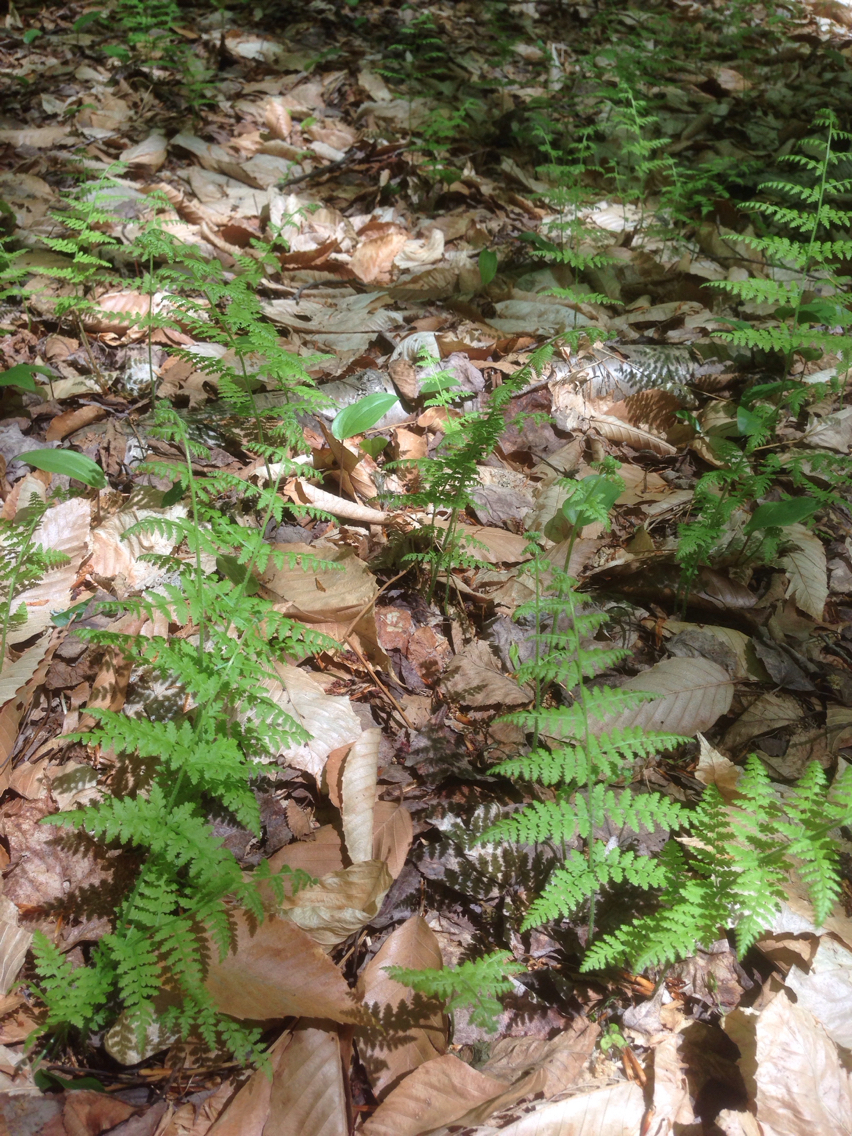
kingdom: Plantae
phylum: Tracheophyta
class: Polypodiopsida
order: Polypodiales
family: Dennstaedtiaceae
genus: Sitobolium
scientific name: Sitobolium punctilobum
